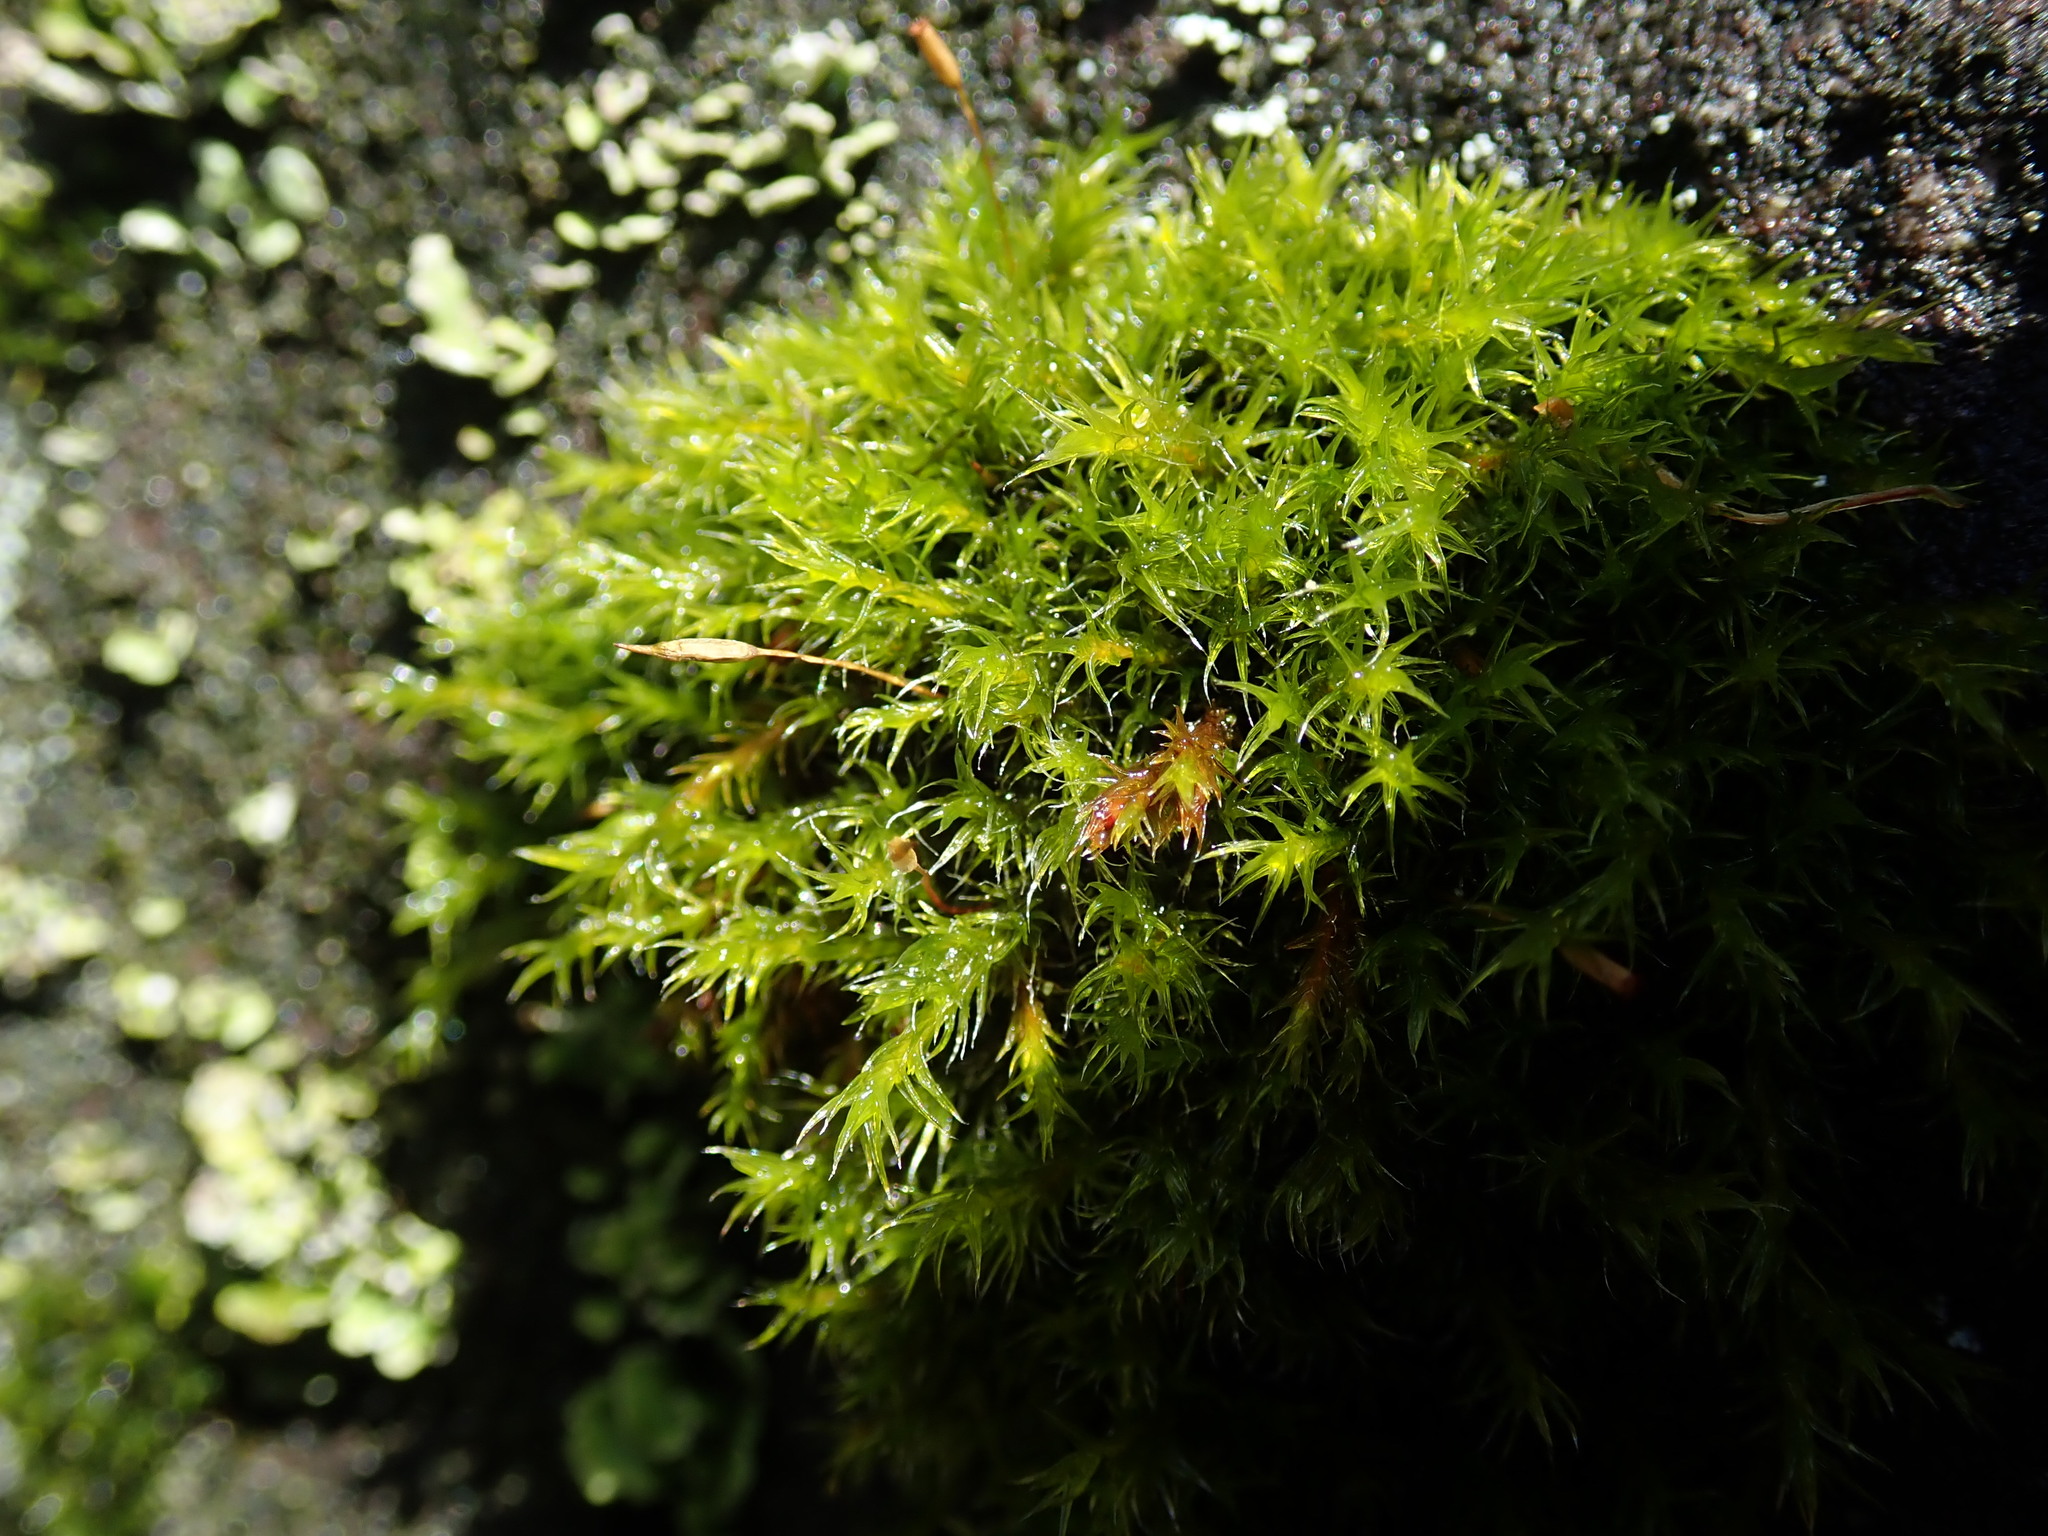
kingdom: Plantae
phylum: Bryophyta
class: Bryopsida
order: Grimmiales
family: Grimmiaceae
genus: Frisvollia
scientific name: Frisvollia varia
